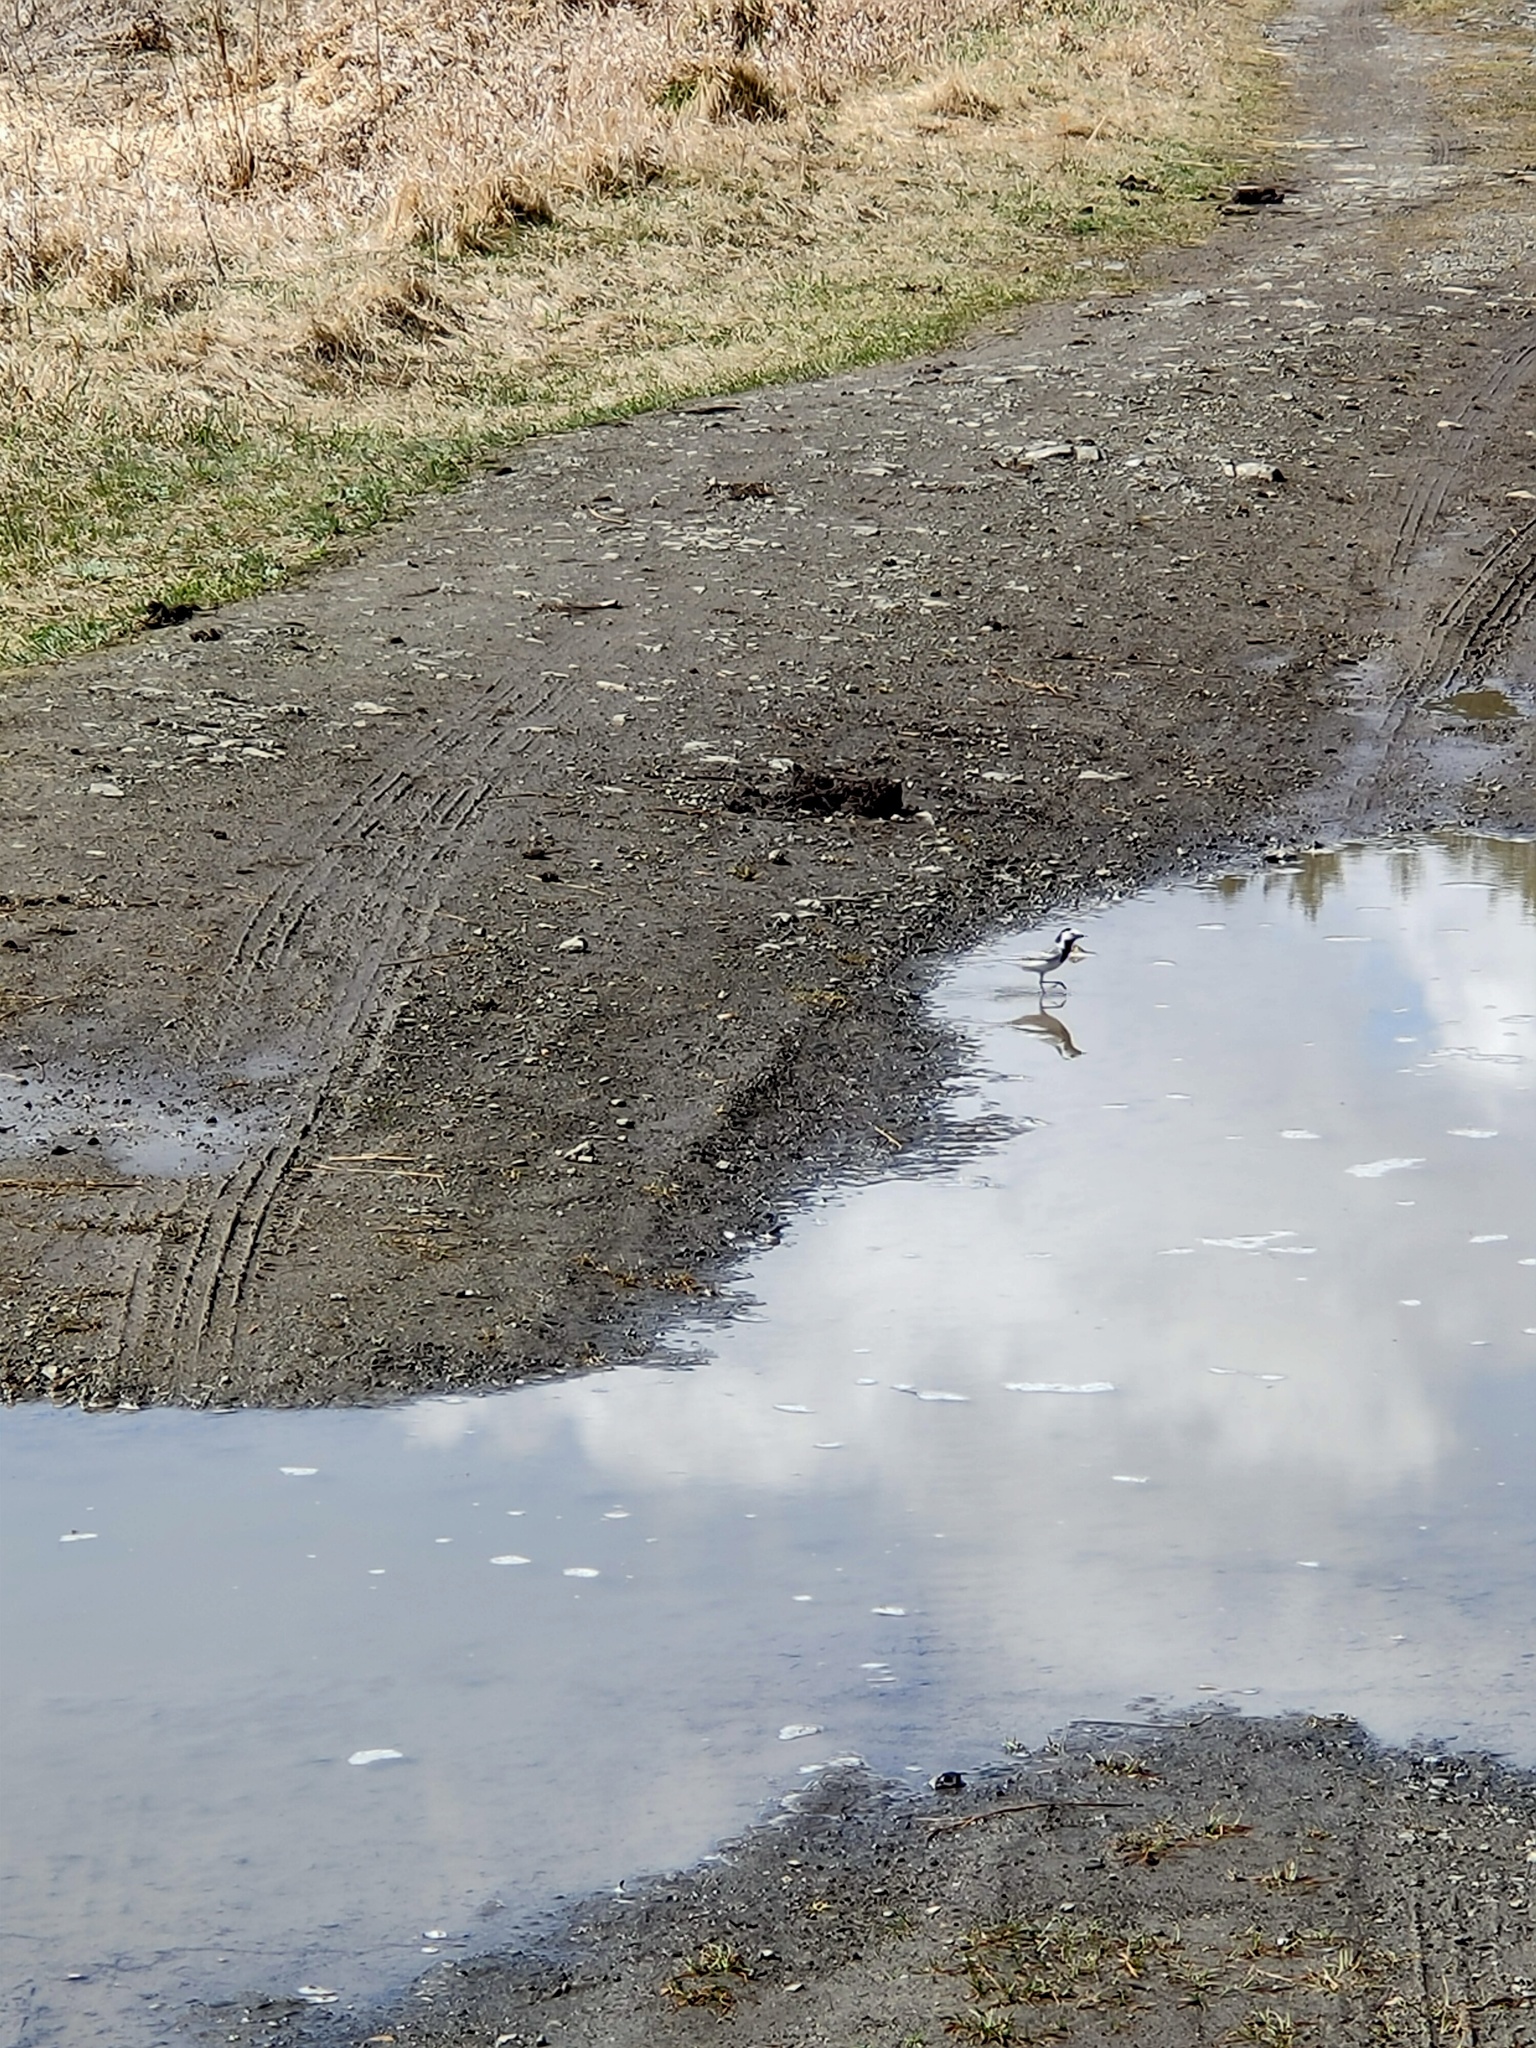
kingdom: Animalia
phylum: Chordata
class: Aves
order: Passeriformes
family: Motacillidae
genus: Motacilla
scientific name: Motacilla alba
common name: White wagtail
